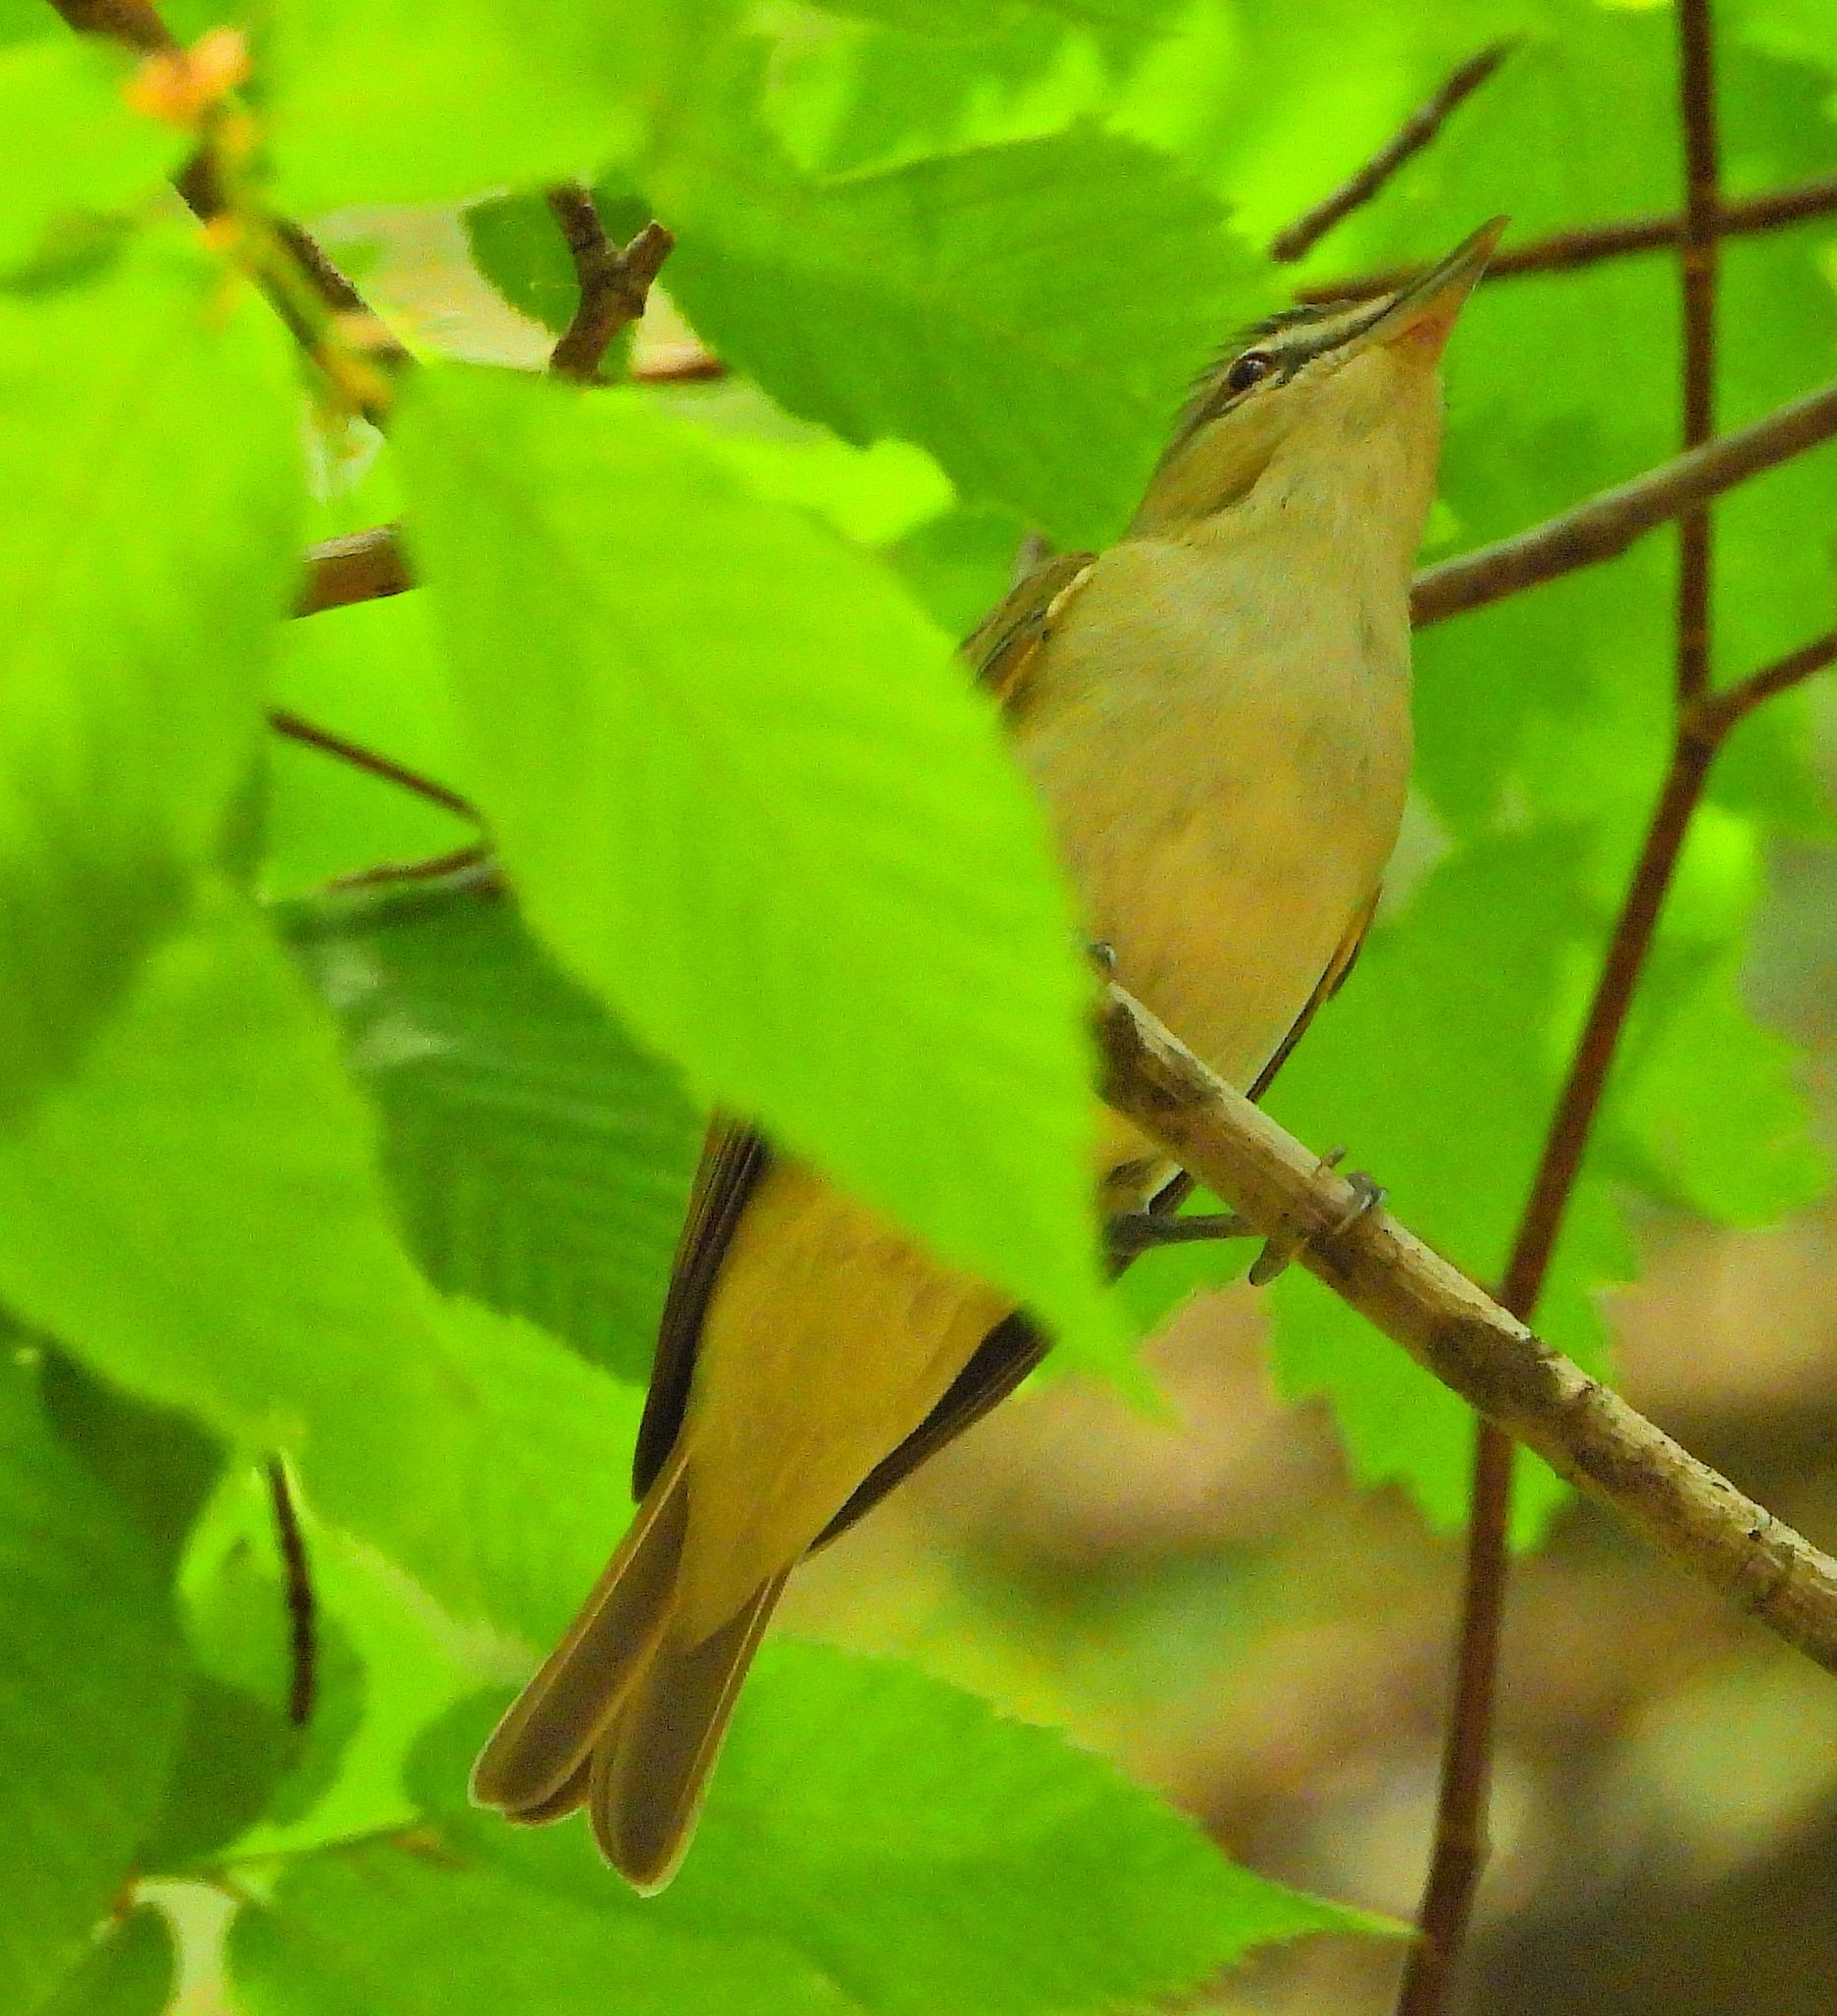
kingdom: Animalia
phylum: Chordata
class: Aves
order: Passeriformes
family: Vireonidae
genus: Vireo
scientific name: Vireo olivaceus
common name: Red-eyed vireo
